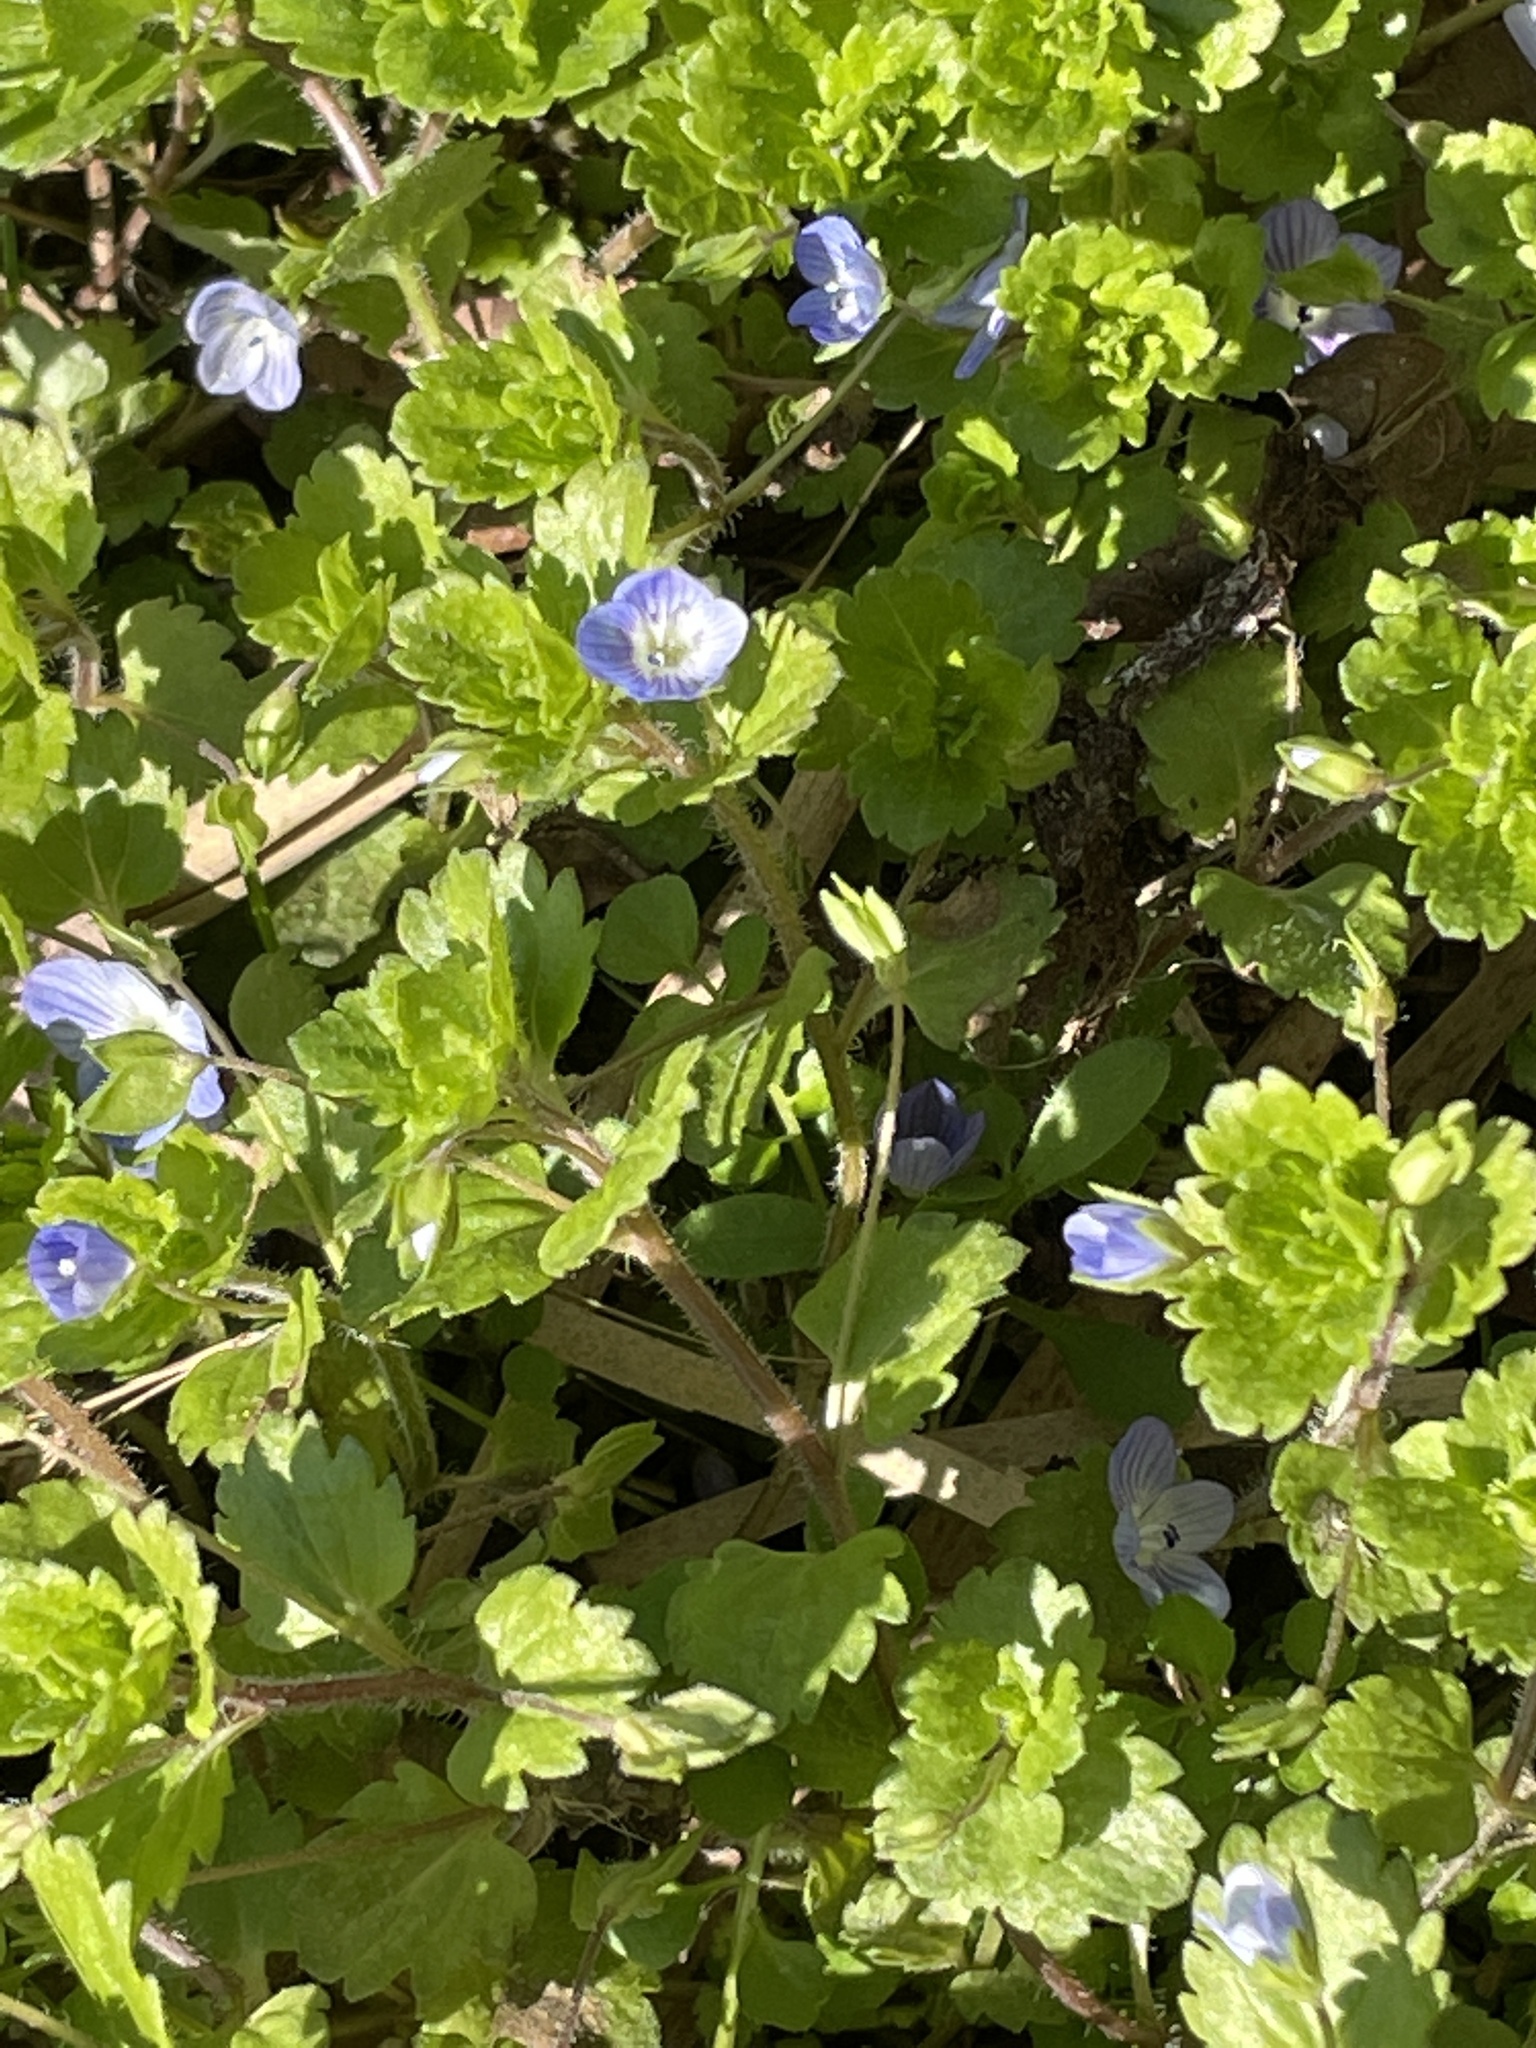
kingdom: Plantae
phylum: Tracheophyta
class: Magnoliopsida
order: Lamiales
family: Plantaginaceae
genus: Veronica
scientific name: Veronica persica
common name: Common field-speedwell
